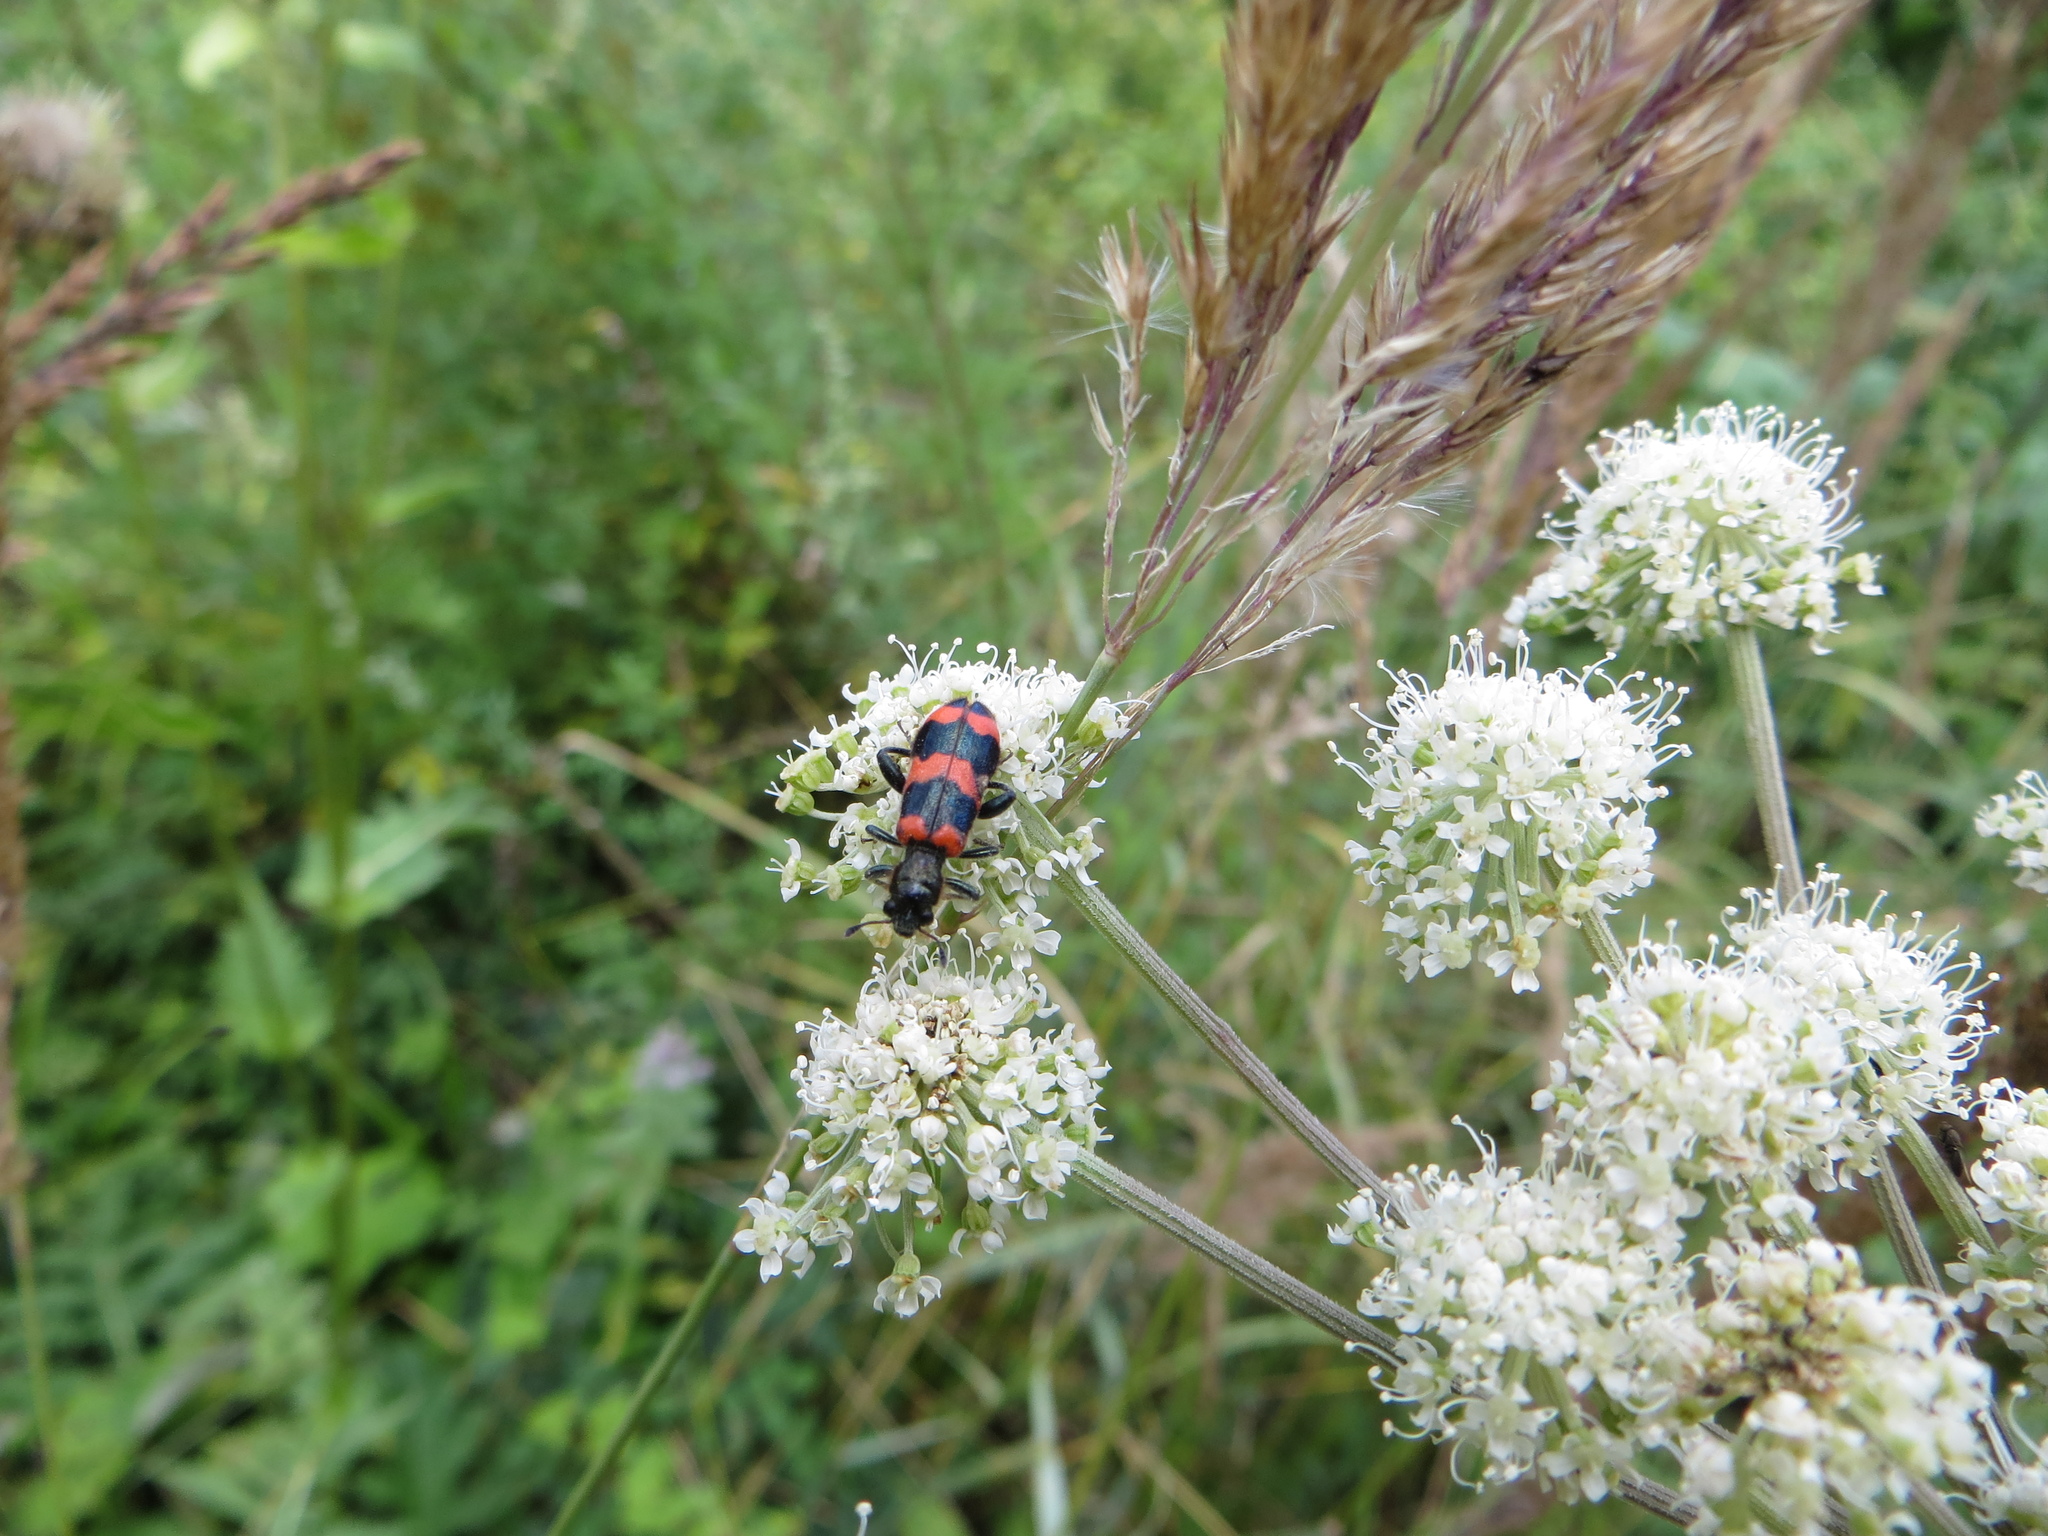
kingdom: Animalia
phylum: Arthropoda
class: Insecta
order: Coleoptera
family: Cleridae
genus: Trichodes
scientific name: Trichodes apiarius
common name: Bee-eating beetle
